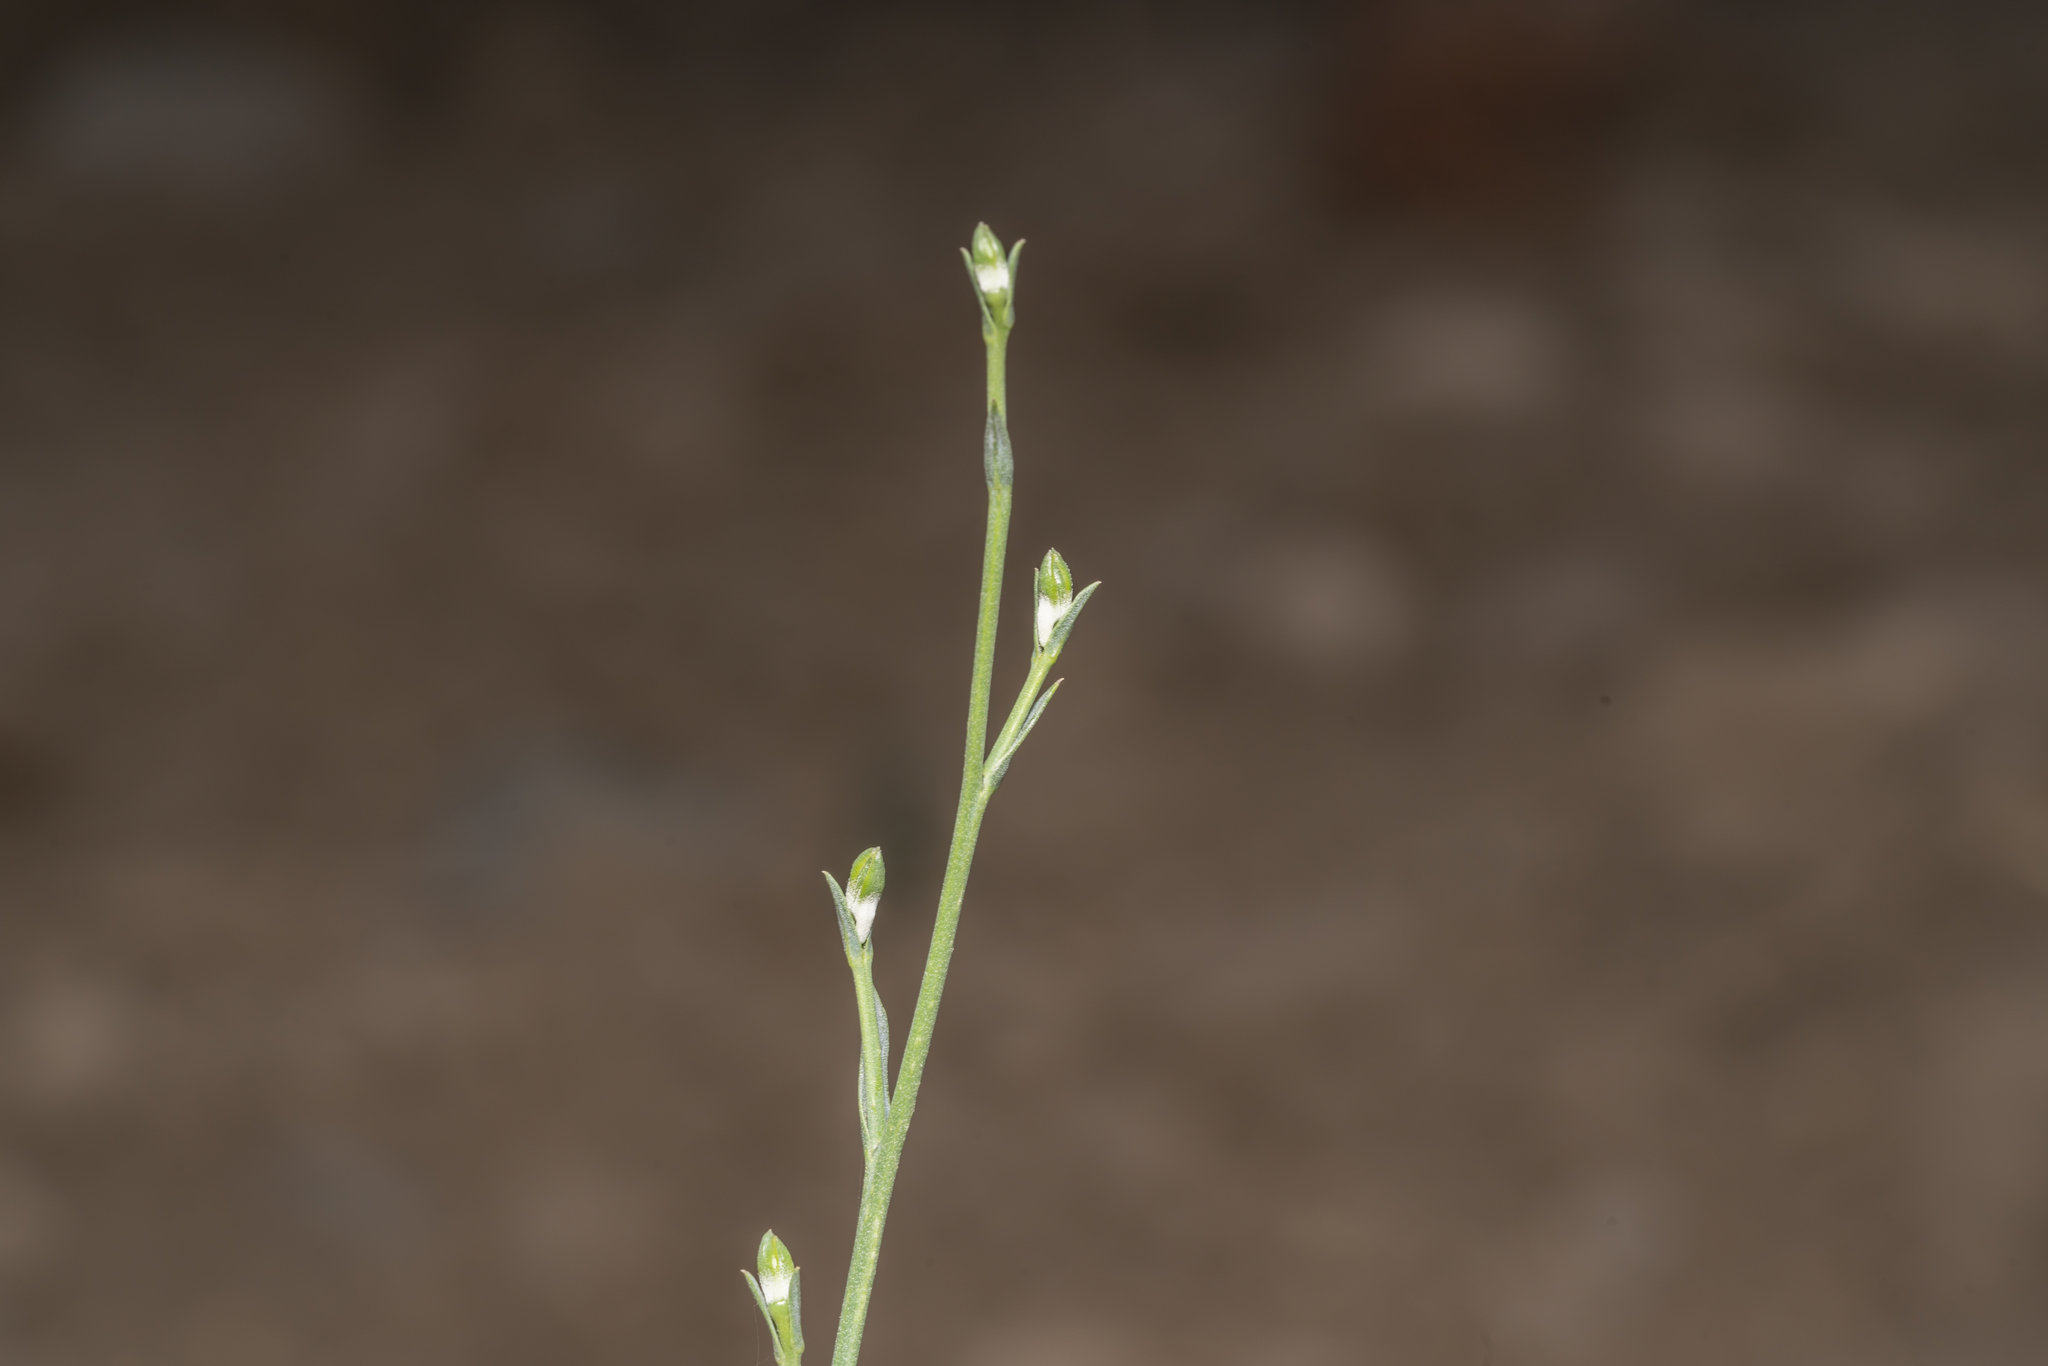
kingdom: Plantae
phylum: Tracheophyta
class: Magnoliopsida
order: Ranunculales
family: Ranunculaceae
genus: Delphinium
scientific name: Delphinium peregrinum
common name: Violet larkspur
